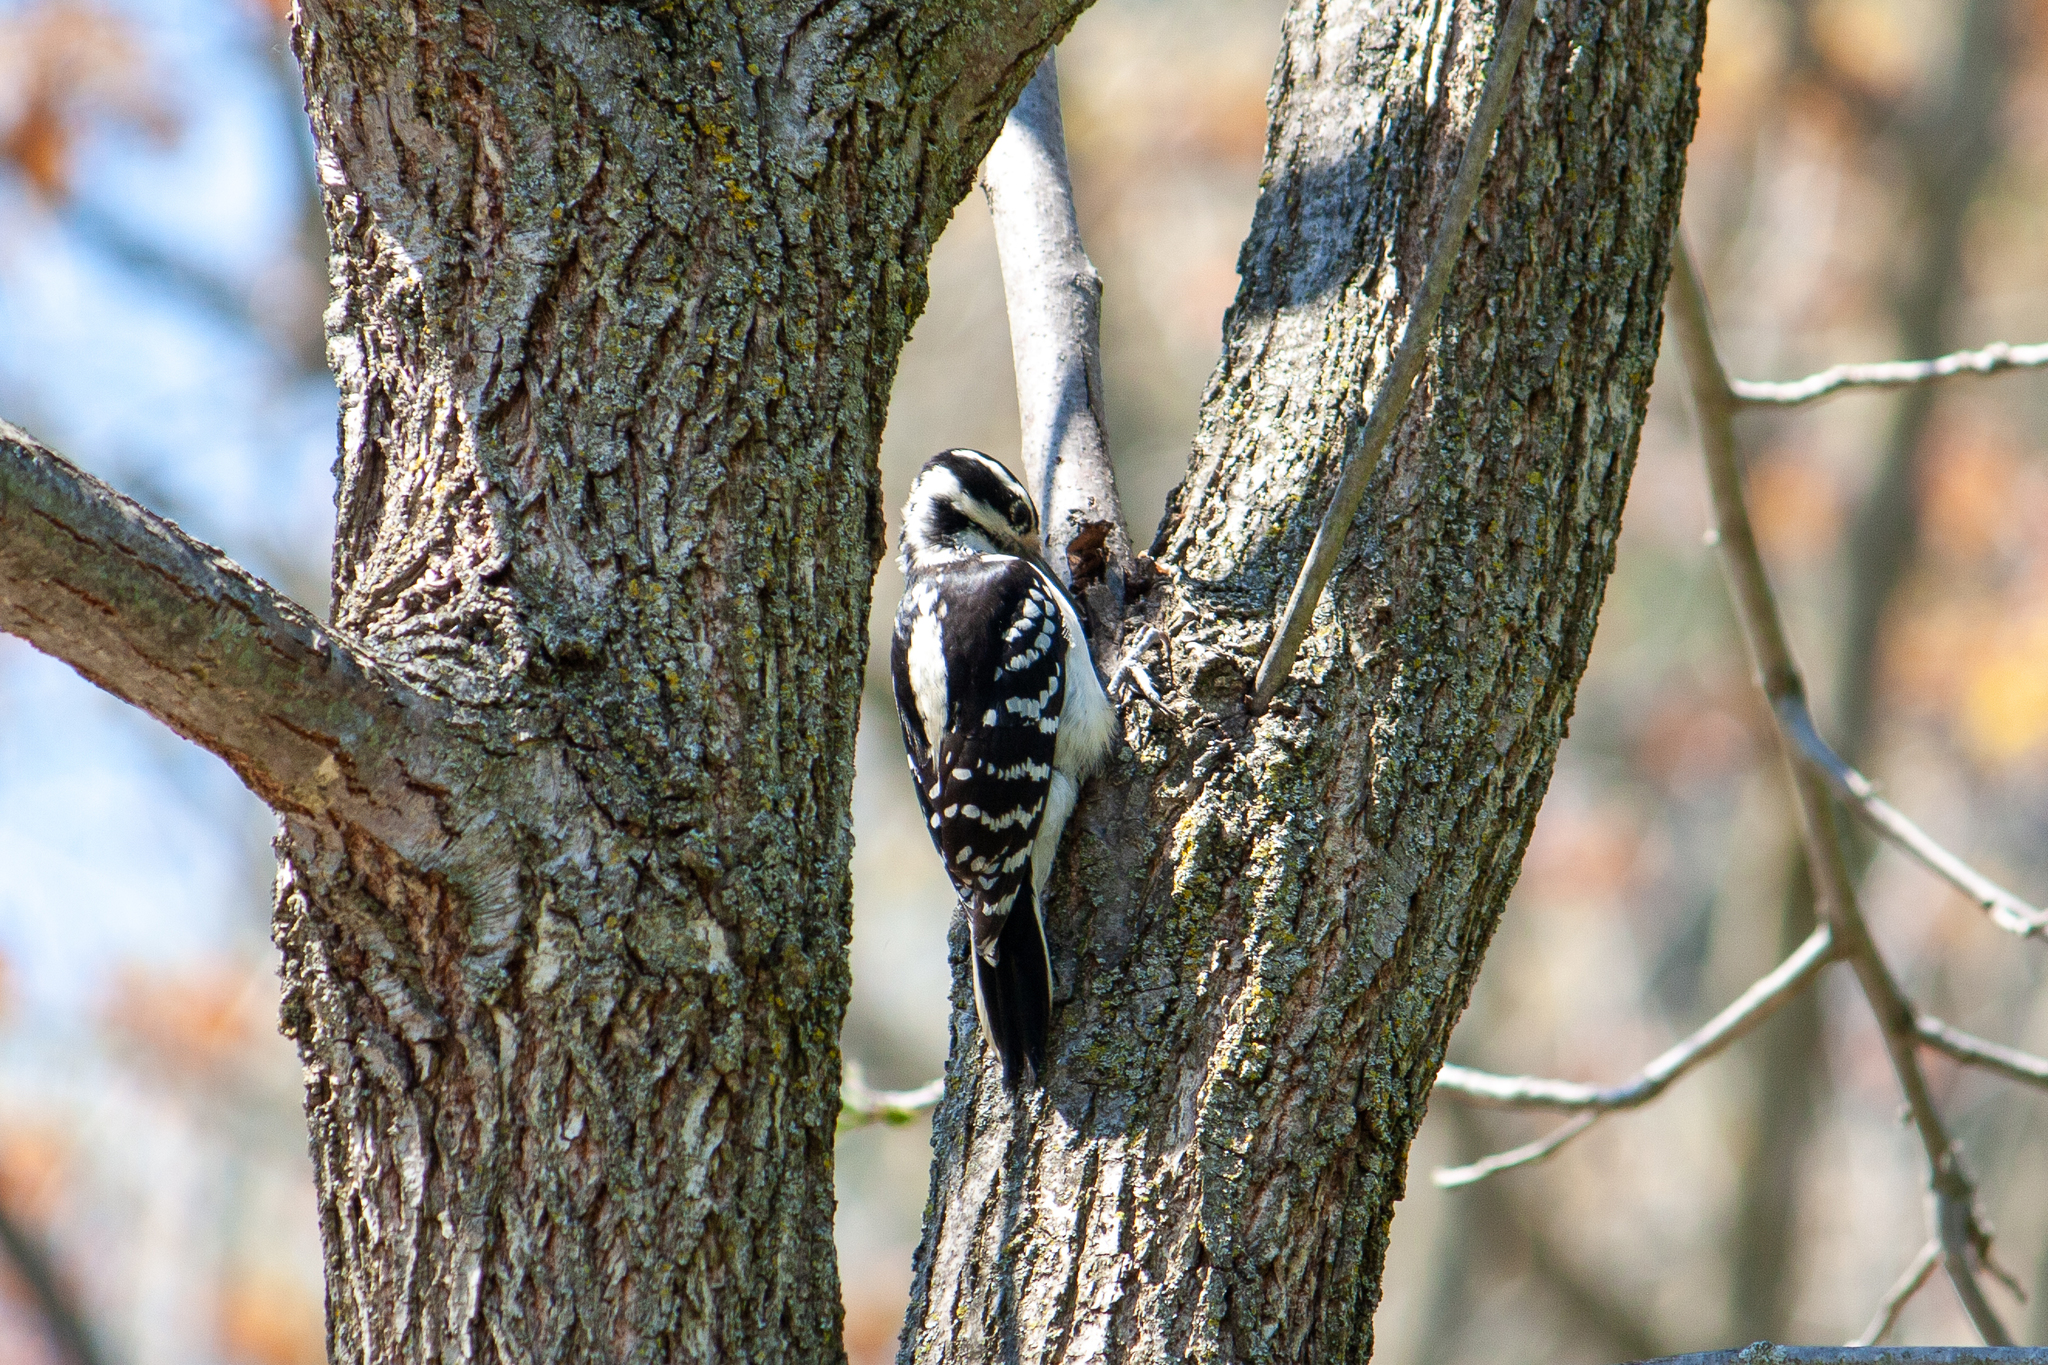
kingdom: Animalia
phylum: Chordata
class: Aves
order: Piciformes
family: Picidae
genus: Leuconotopicus
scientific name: Leuconotopicus villosus
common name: Hairy woodpecker
